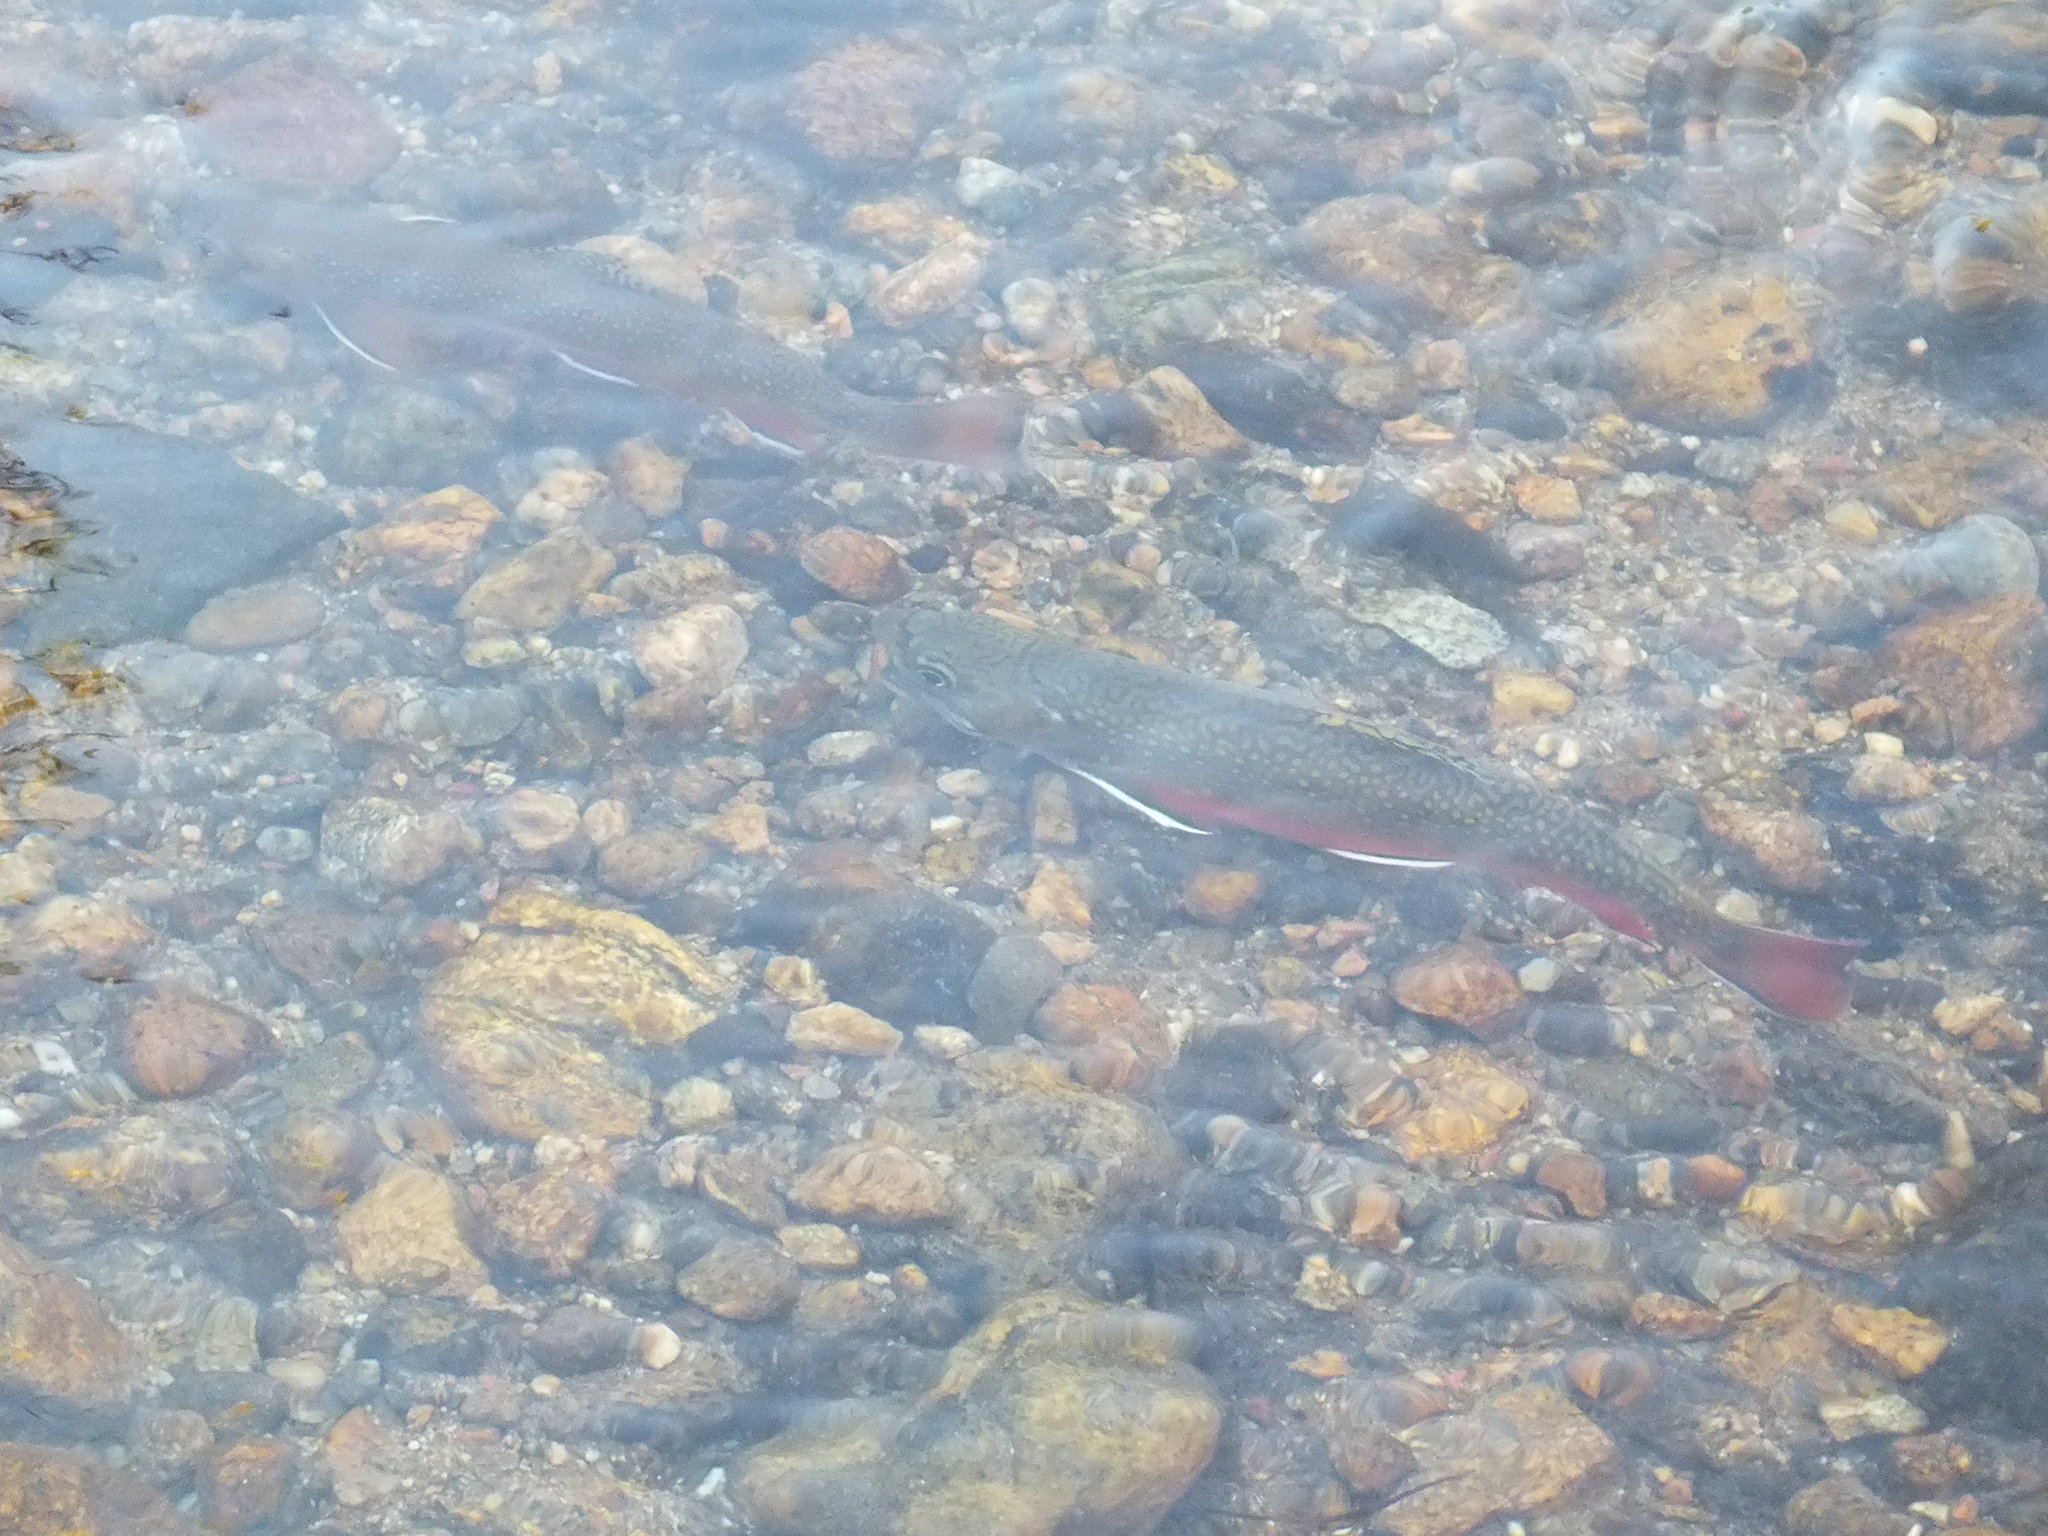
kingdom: Animalia
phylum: Chordata
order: Salmoniformes
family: Salmonidae
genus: Salvelinus
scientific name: Salvelinus fontinalis
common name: Brook trout
